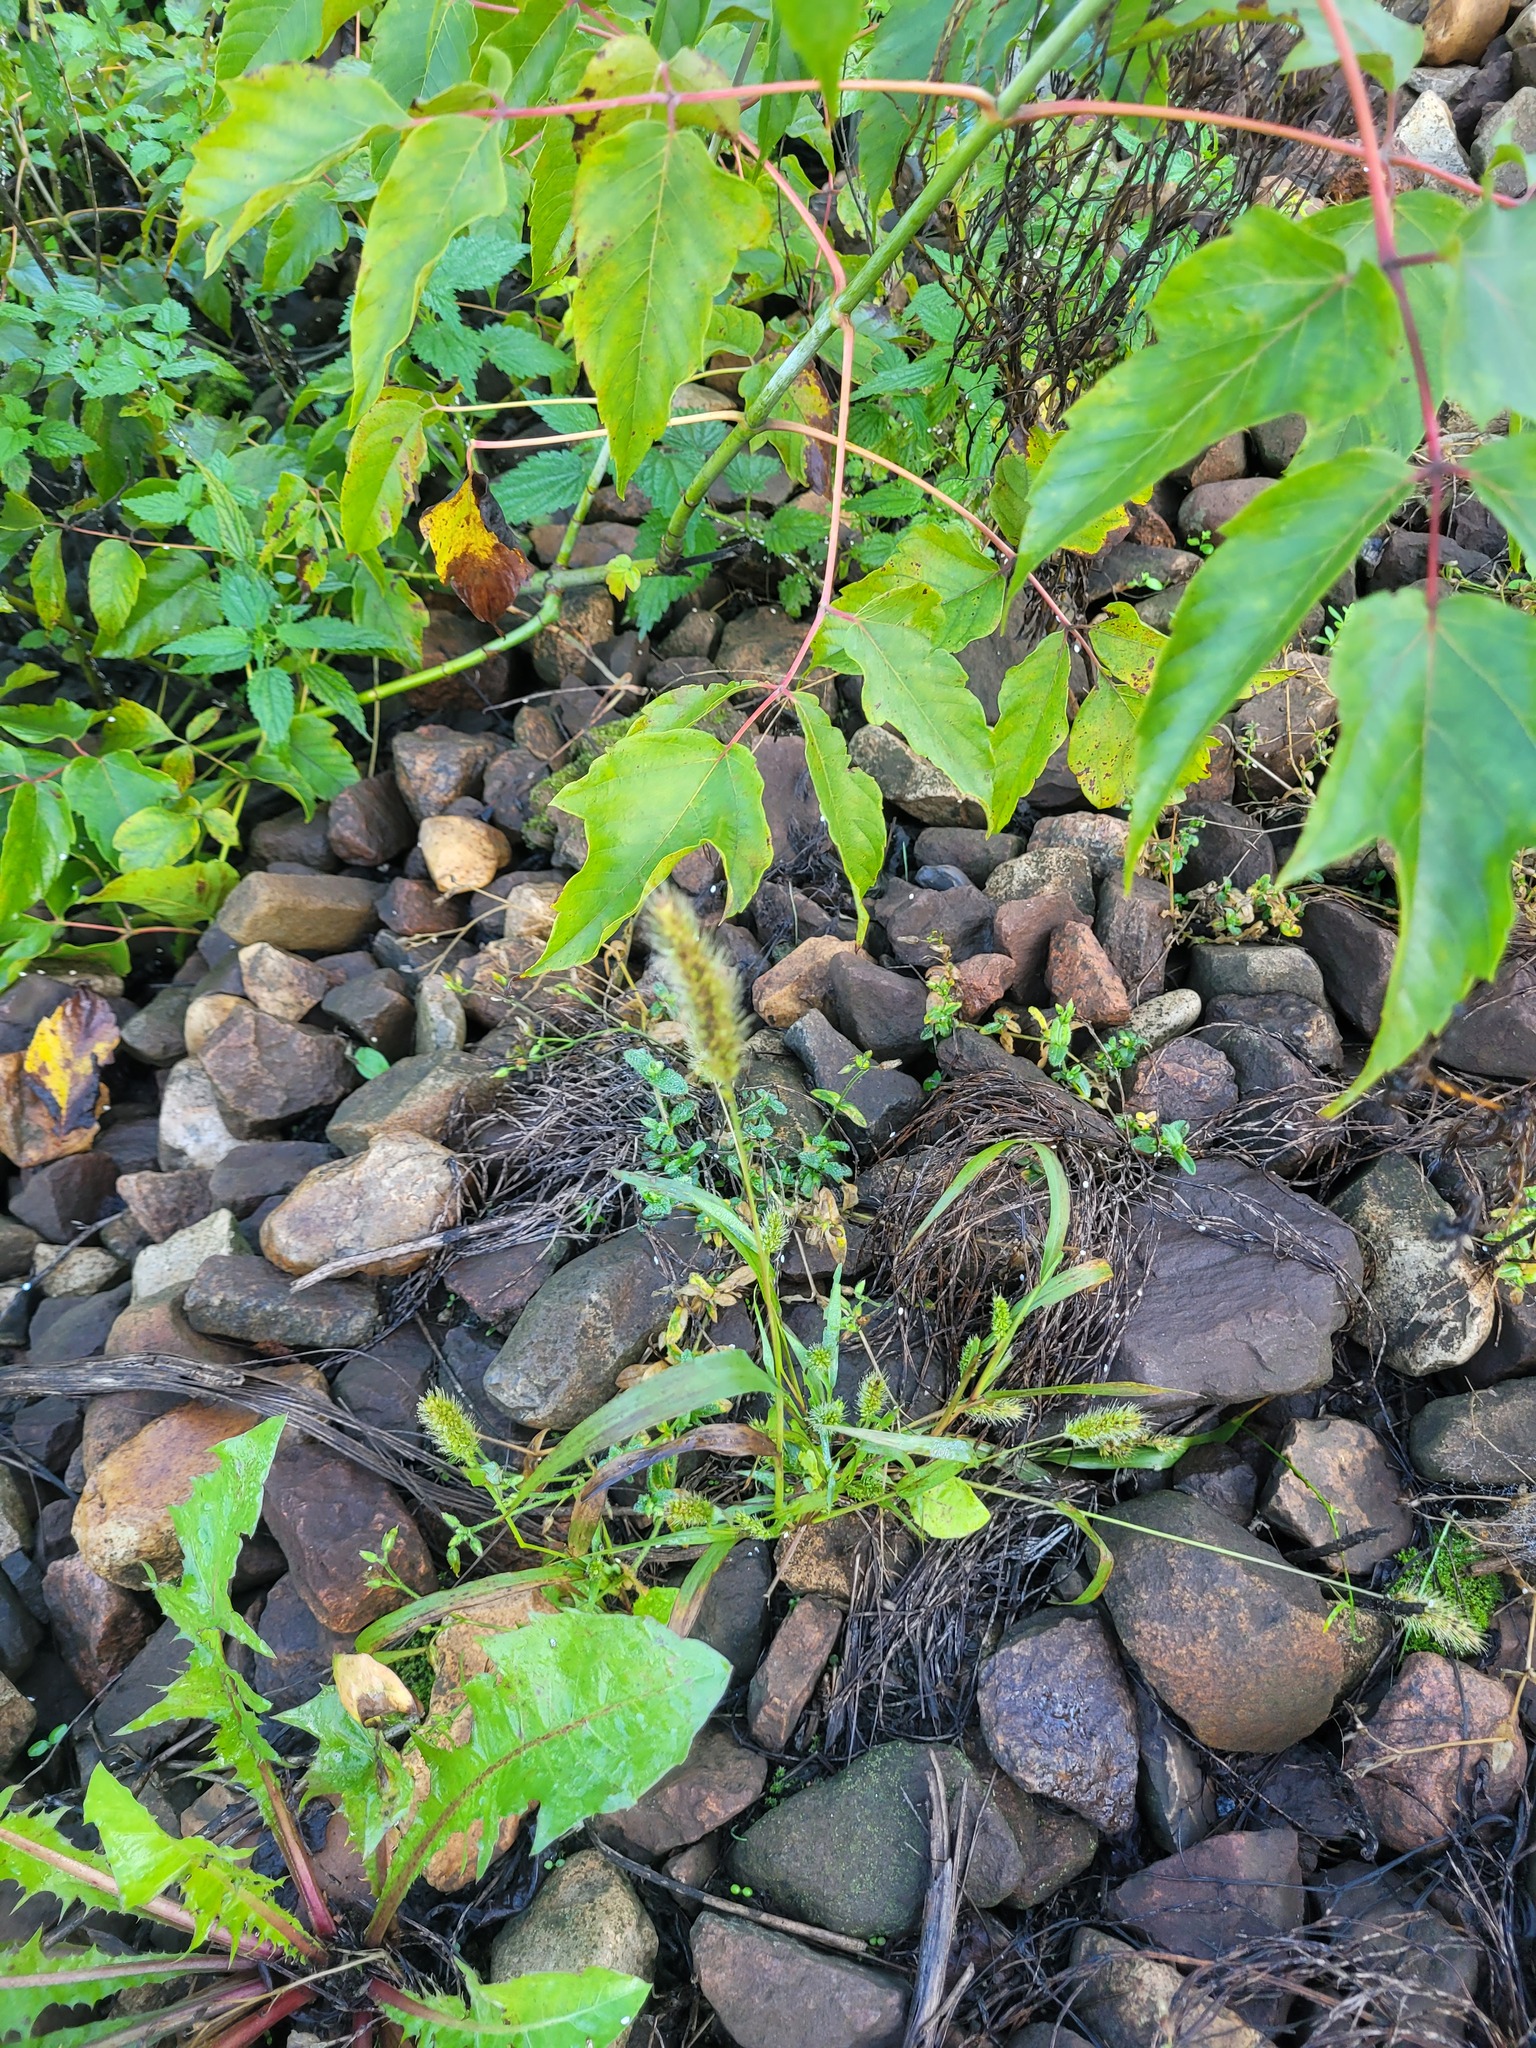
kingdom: Plantae
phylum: Tracheophyta
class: Liliopsida
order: Poales
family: Poaceae
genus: Setaria
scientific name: Setaria viridis
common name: Green bristlegrass
